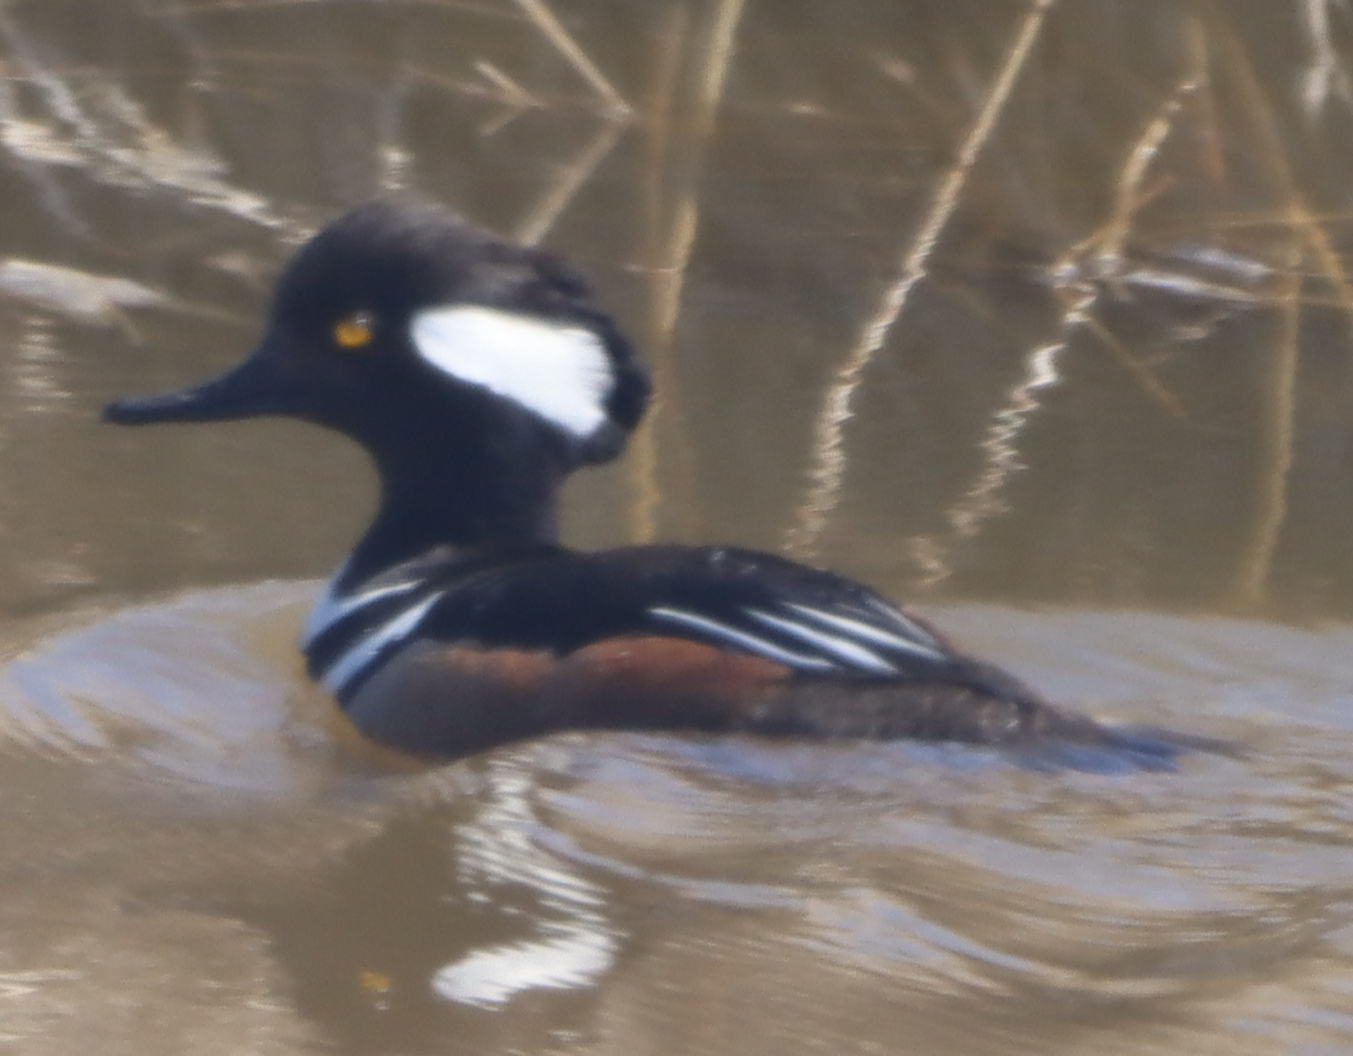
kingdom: Animalia
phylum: Chordata
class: Aves
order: Anseriformes
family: Anatidae
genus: Lophodytes
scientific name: Lophodytes cucullatus
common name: Hooded merganser
